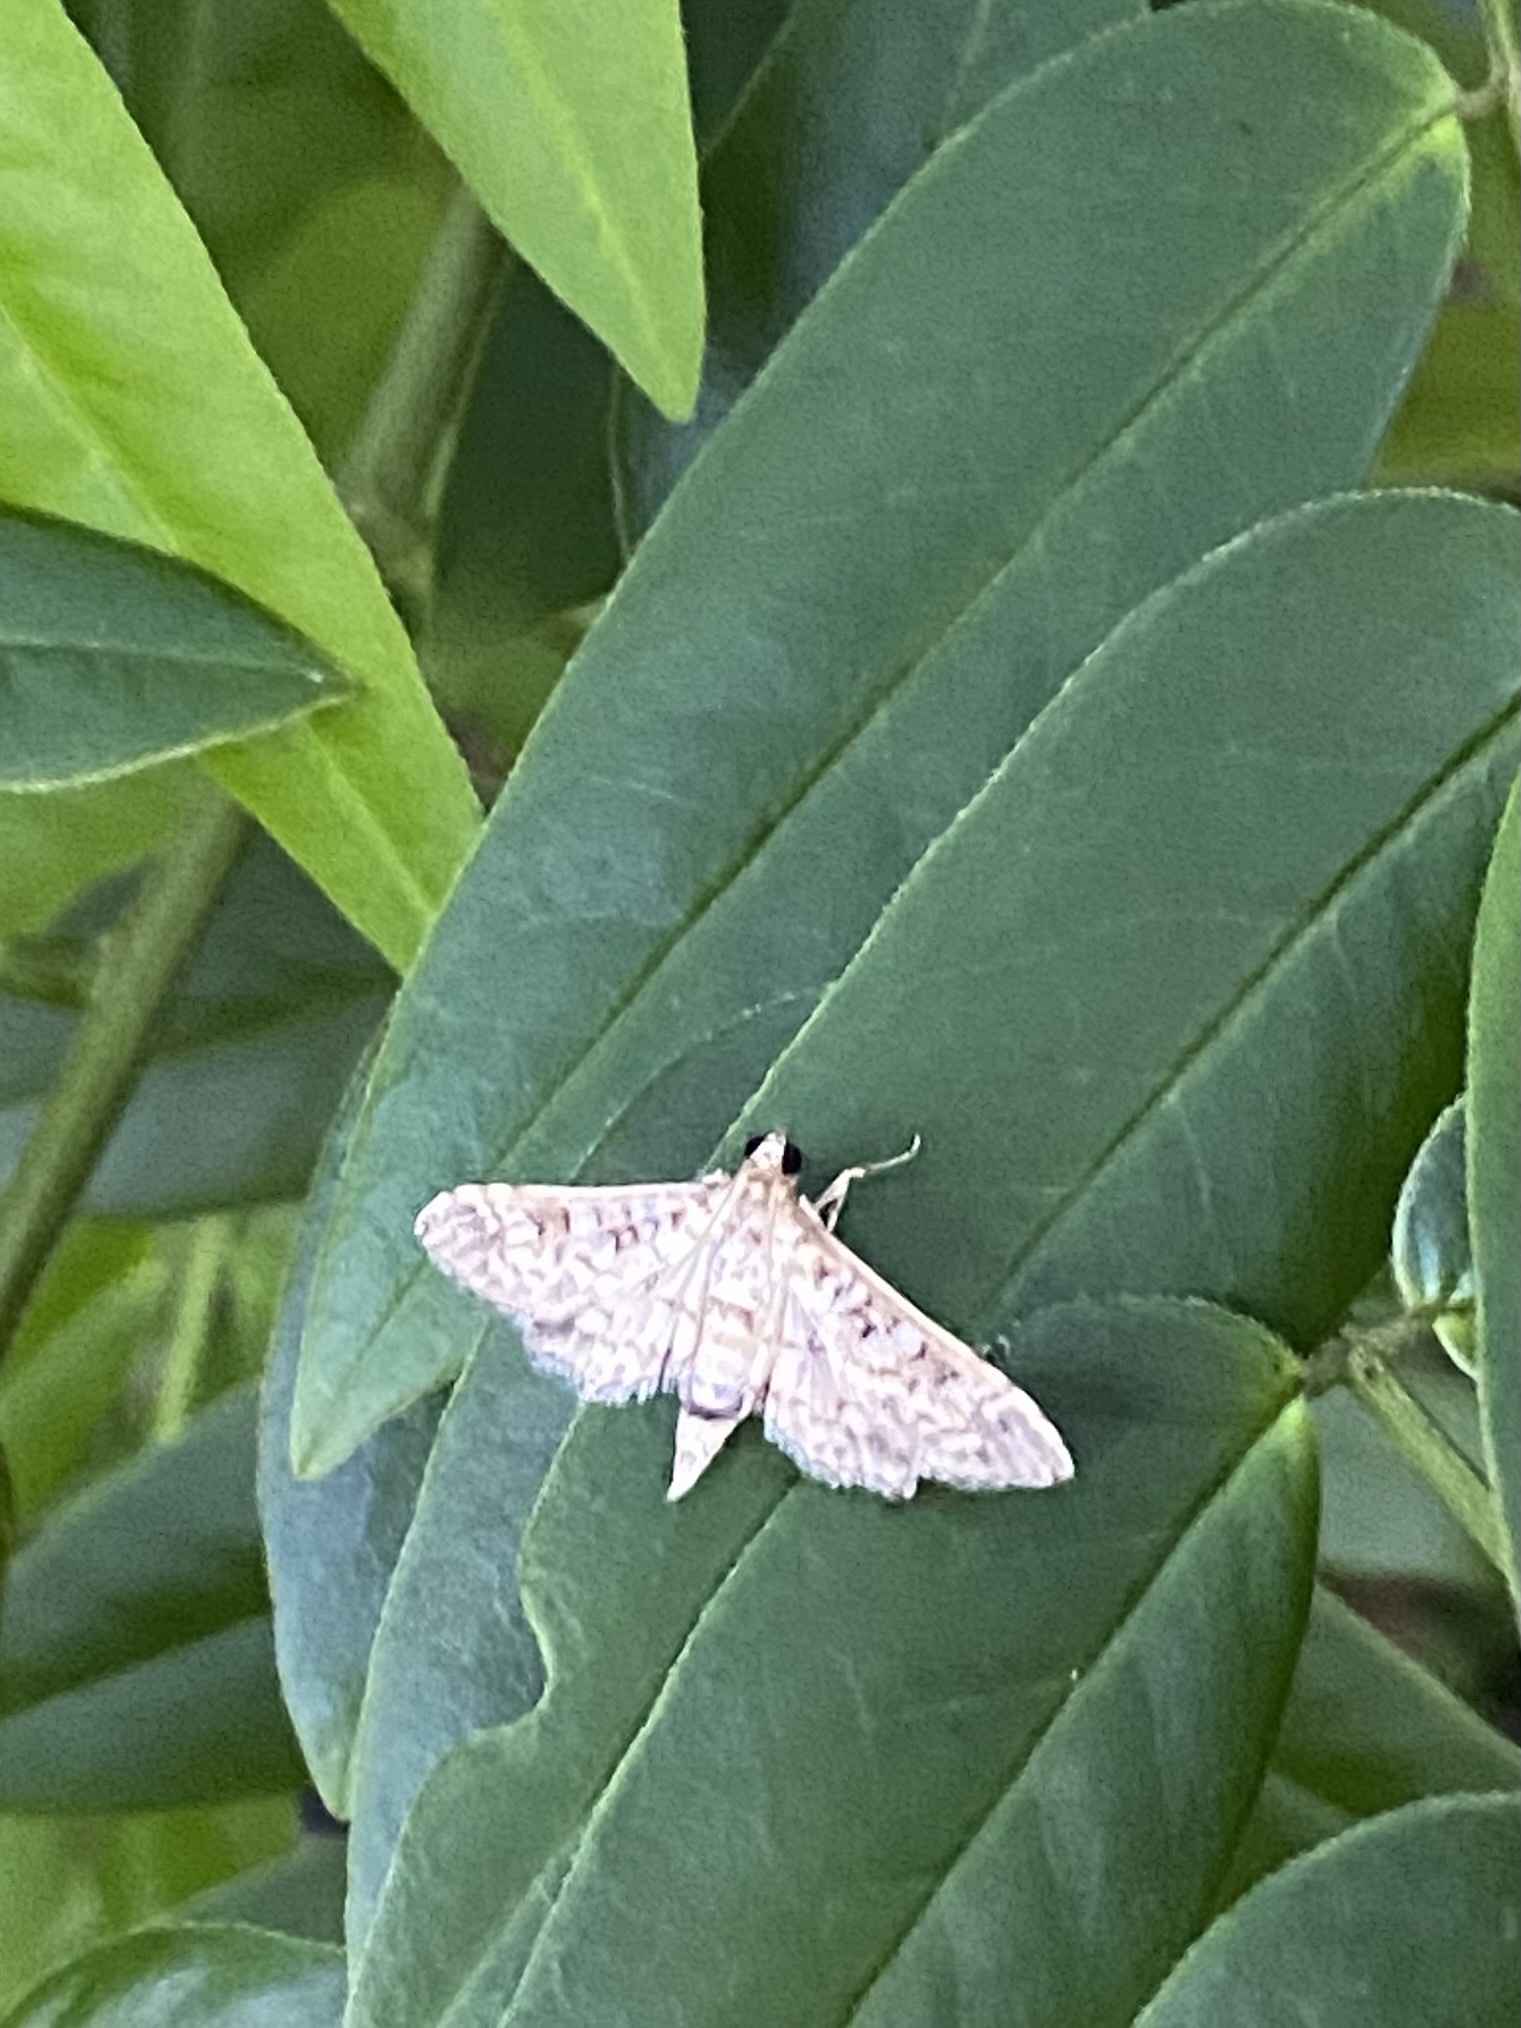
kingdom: Animalia
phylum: Arthropoda
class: Insecta
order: Lepidoptera
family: Crambidae
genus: Samea
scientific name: Samea ecclesialis
